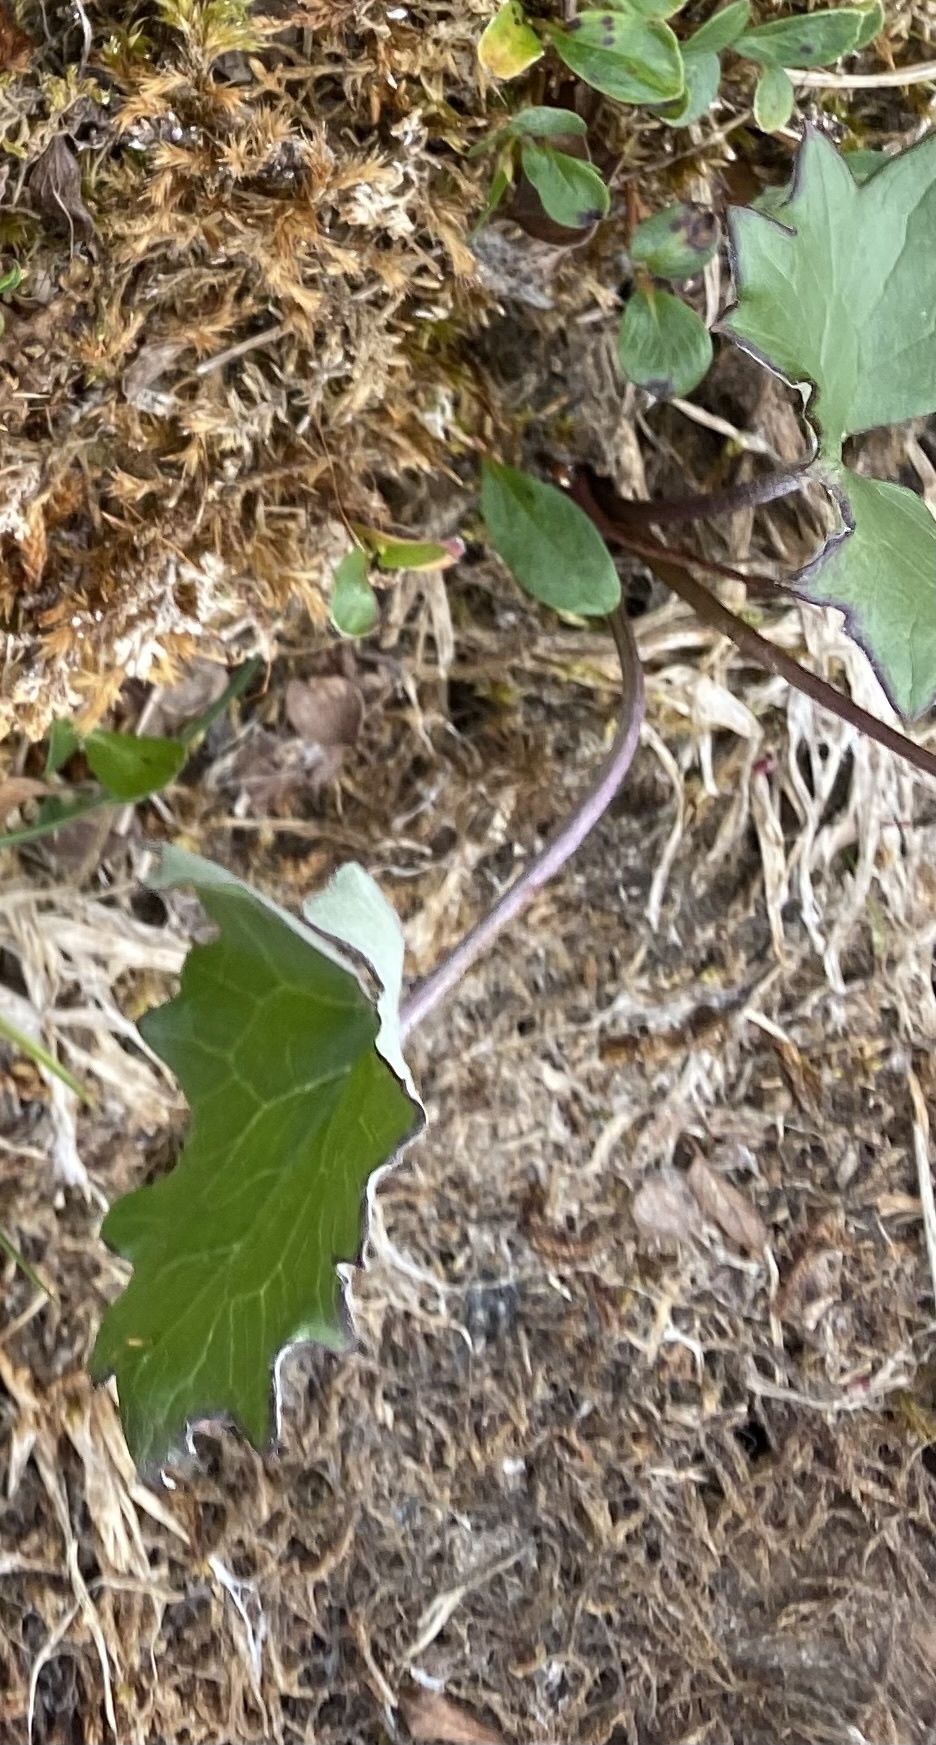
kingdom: Plantae
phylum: Tracheophyta
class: Magnoliopsida
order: Asterales
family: Asteraceae
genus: Petasites
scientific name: Petasites frigidus
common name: Arctic butterbur
